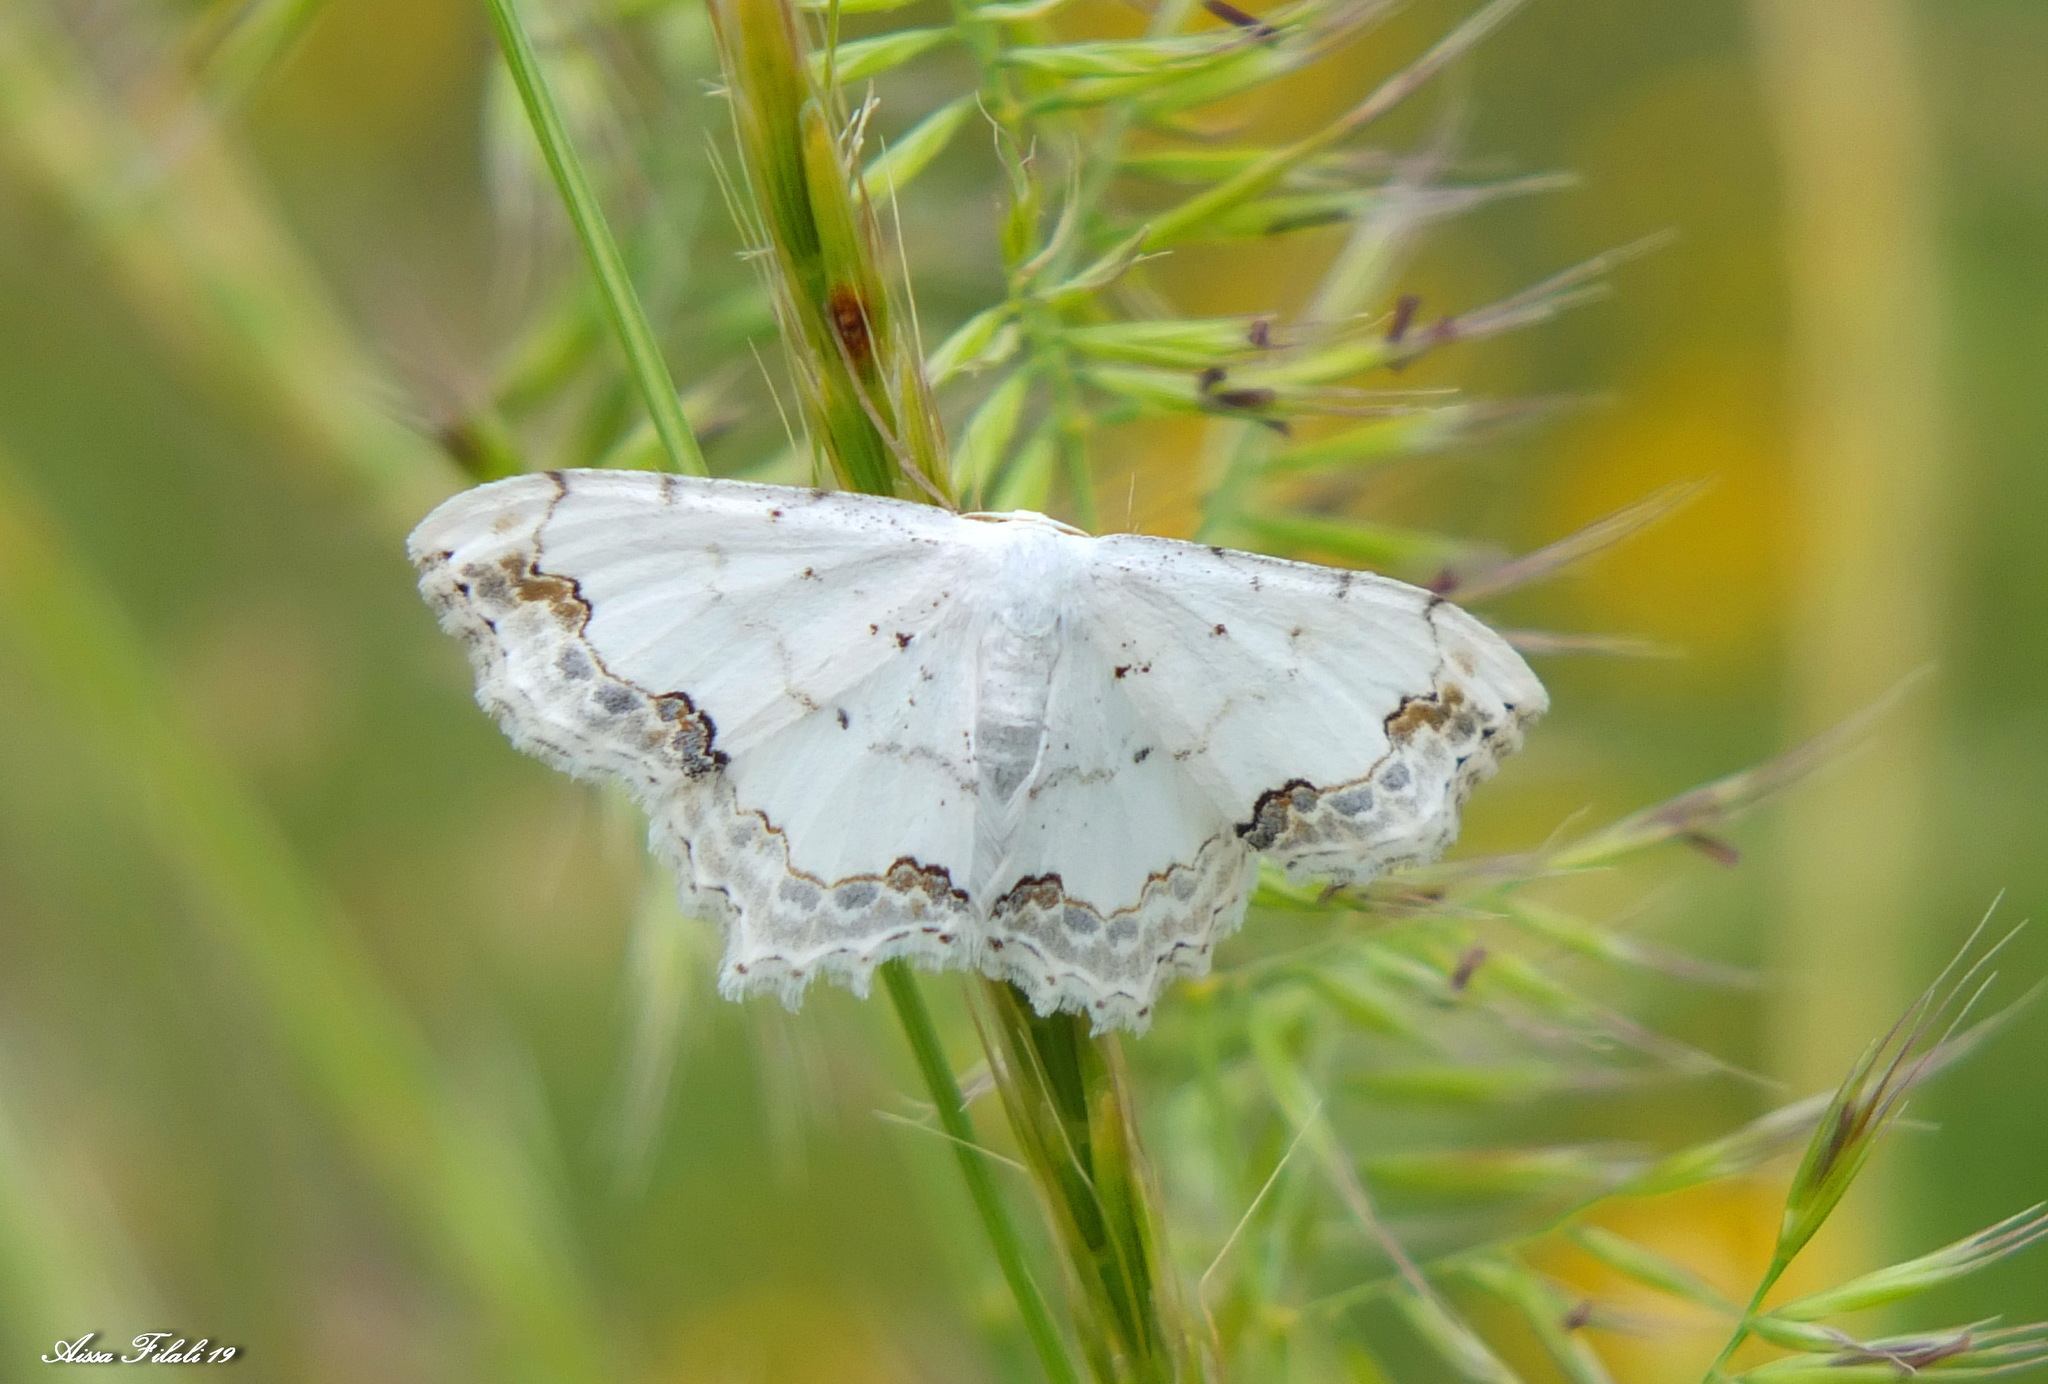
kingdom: Animalia
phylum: Arthropoda
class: Insecta
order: Lepidoptera
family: Geometridae
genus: Scopula
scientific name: Scopula ornata
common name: Lace border
